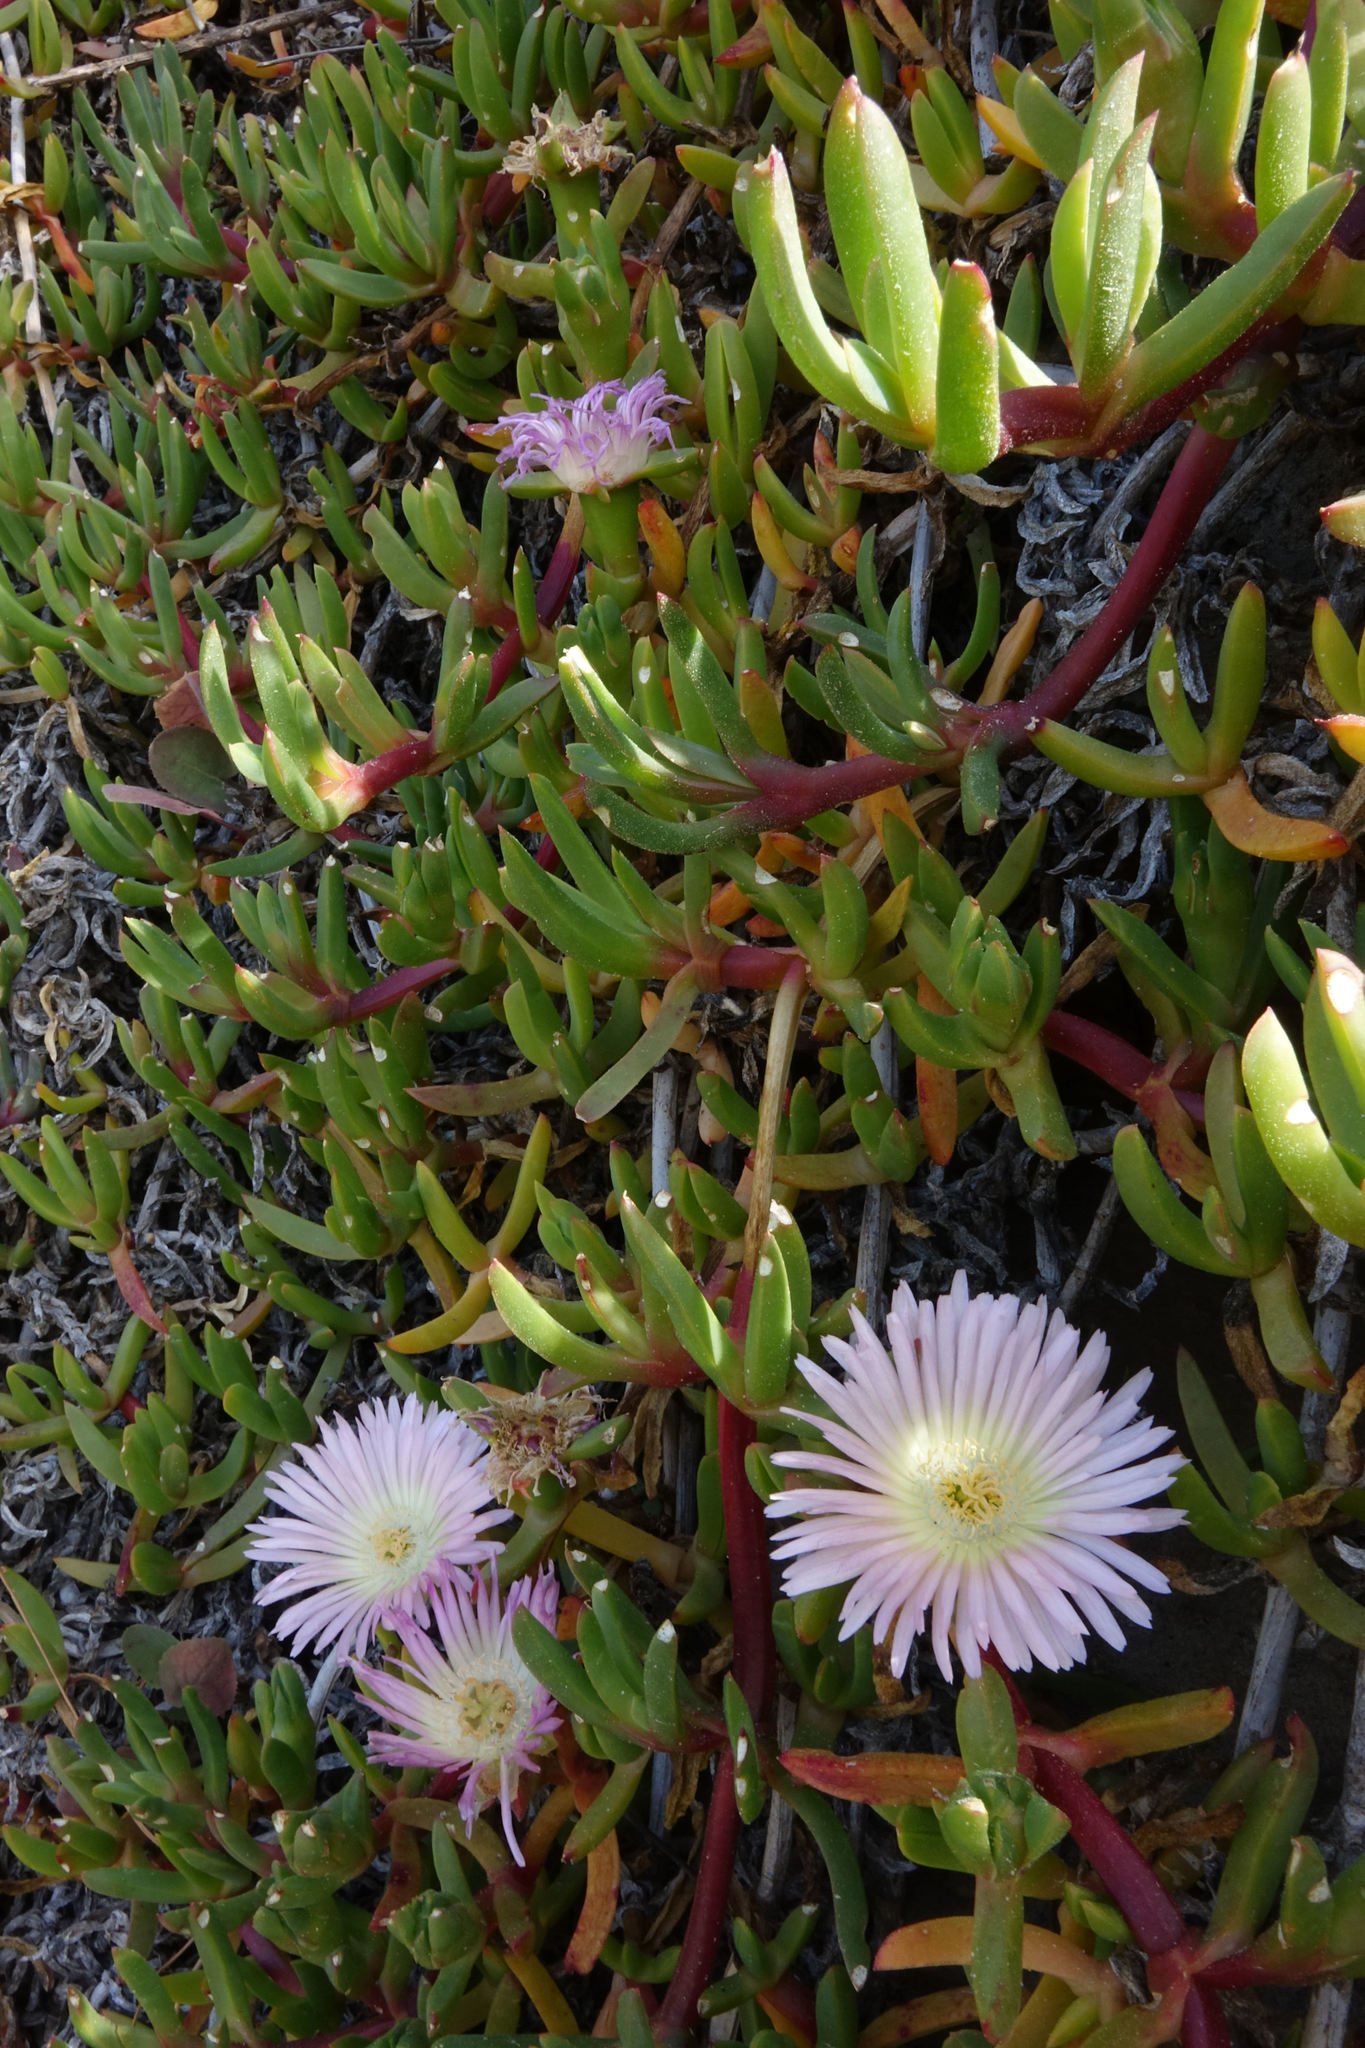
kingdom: Plantae
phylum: Tracheophyta
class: Magnoliopsida
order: Caryophyllales
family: Aizoaceae
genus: Disphyma
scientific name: Disphyma australe
